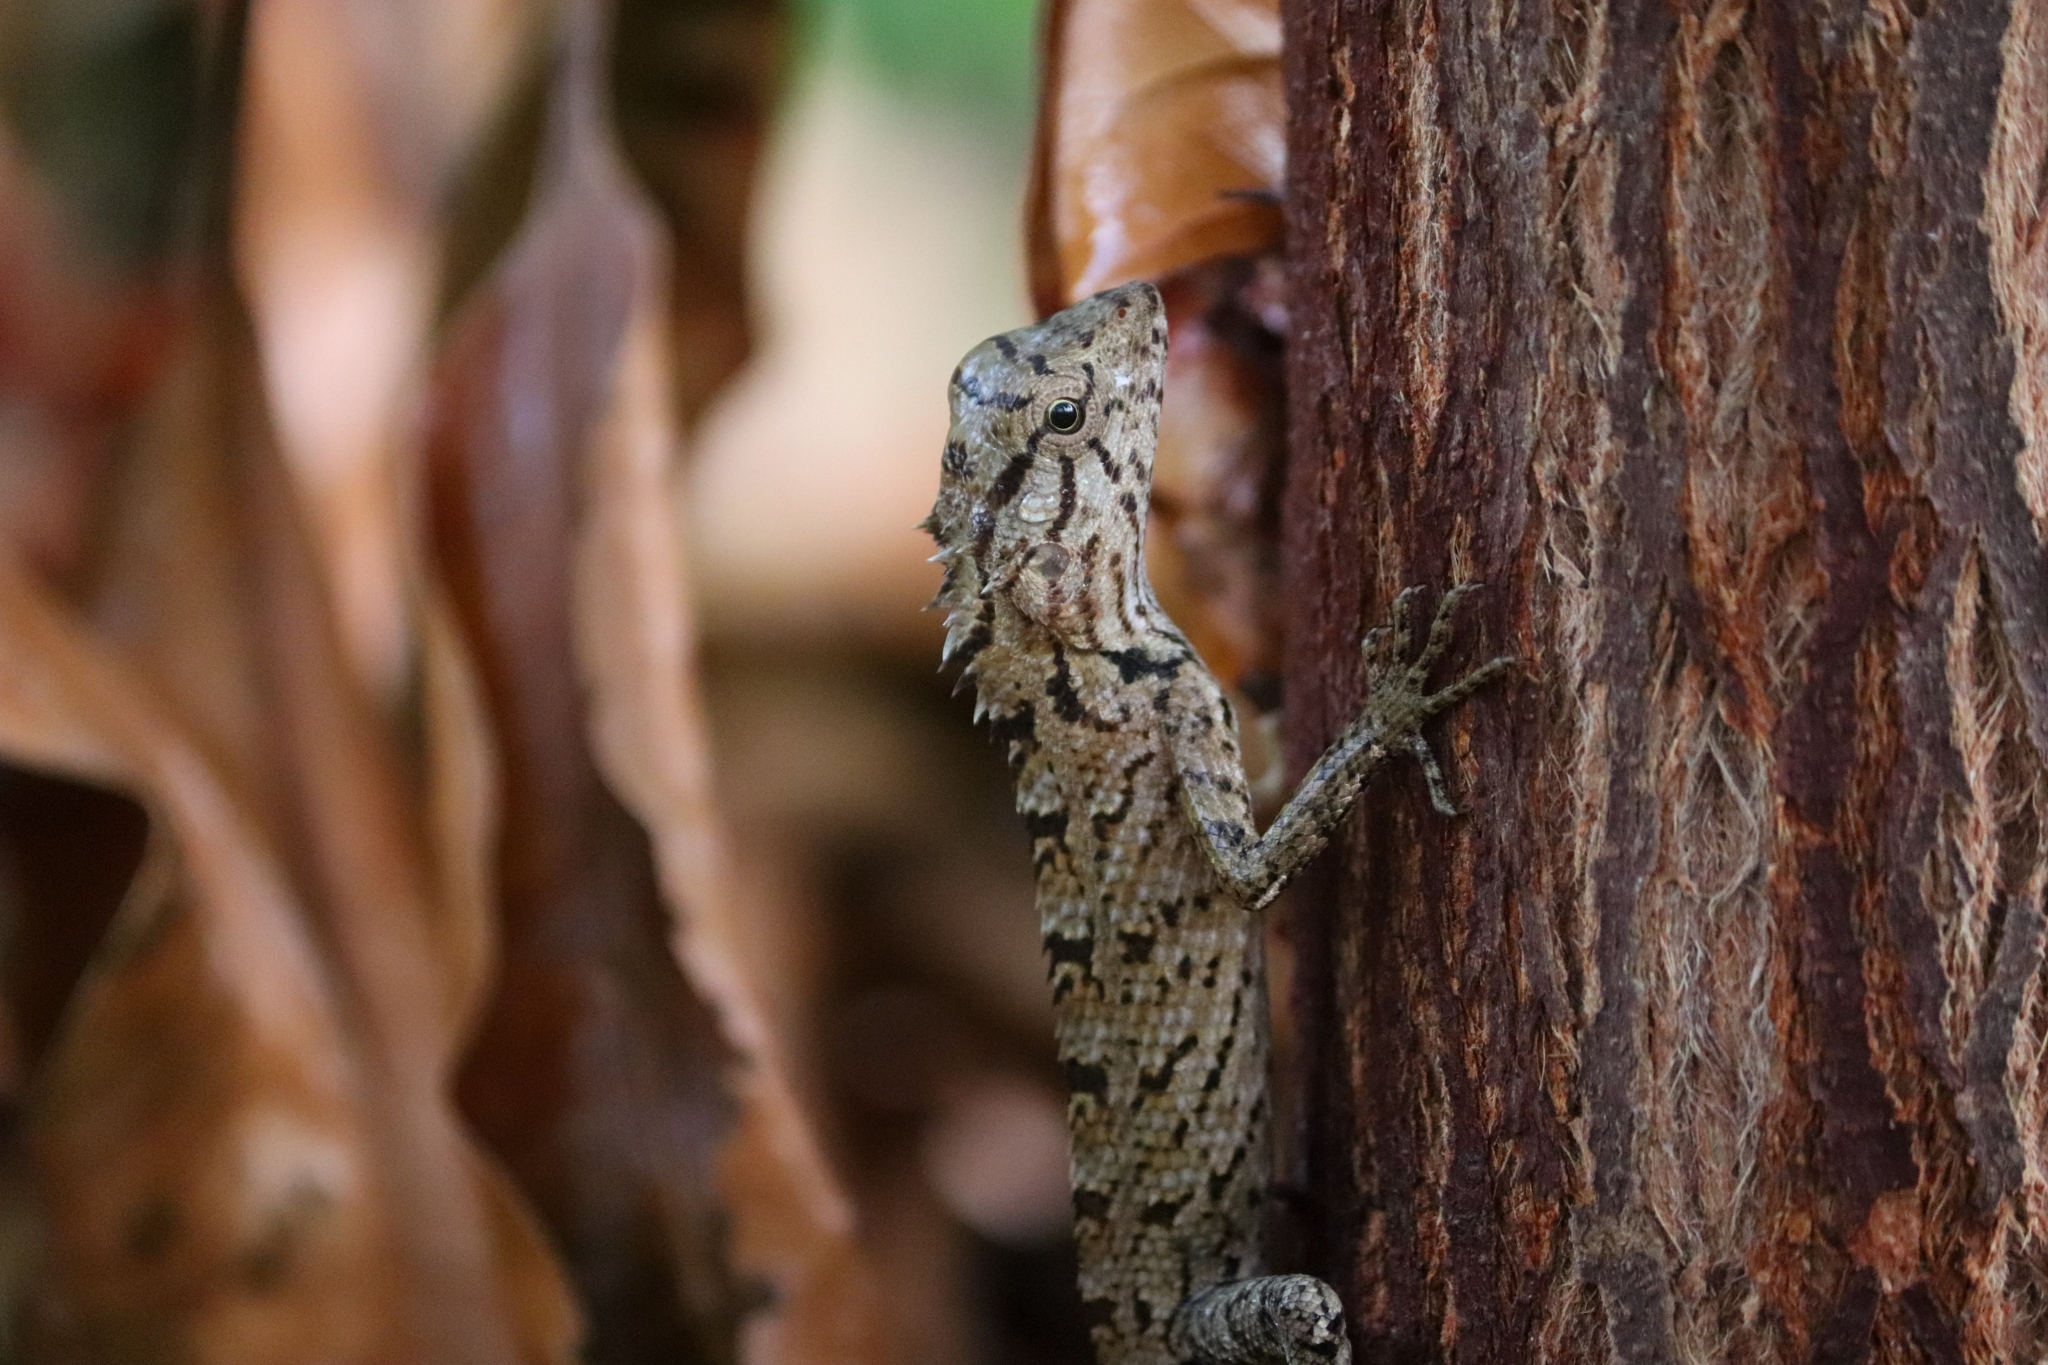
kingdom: Animalia
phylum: Chordata
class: Squamata
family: Agamidae
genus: Calotes
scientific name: Calotes versicolor
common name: Oriental garden lizard
